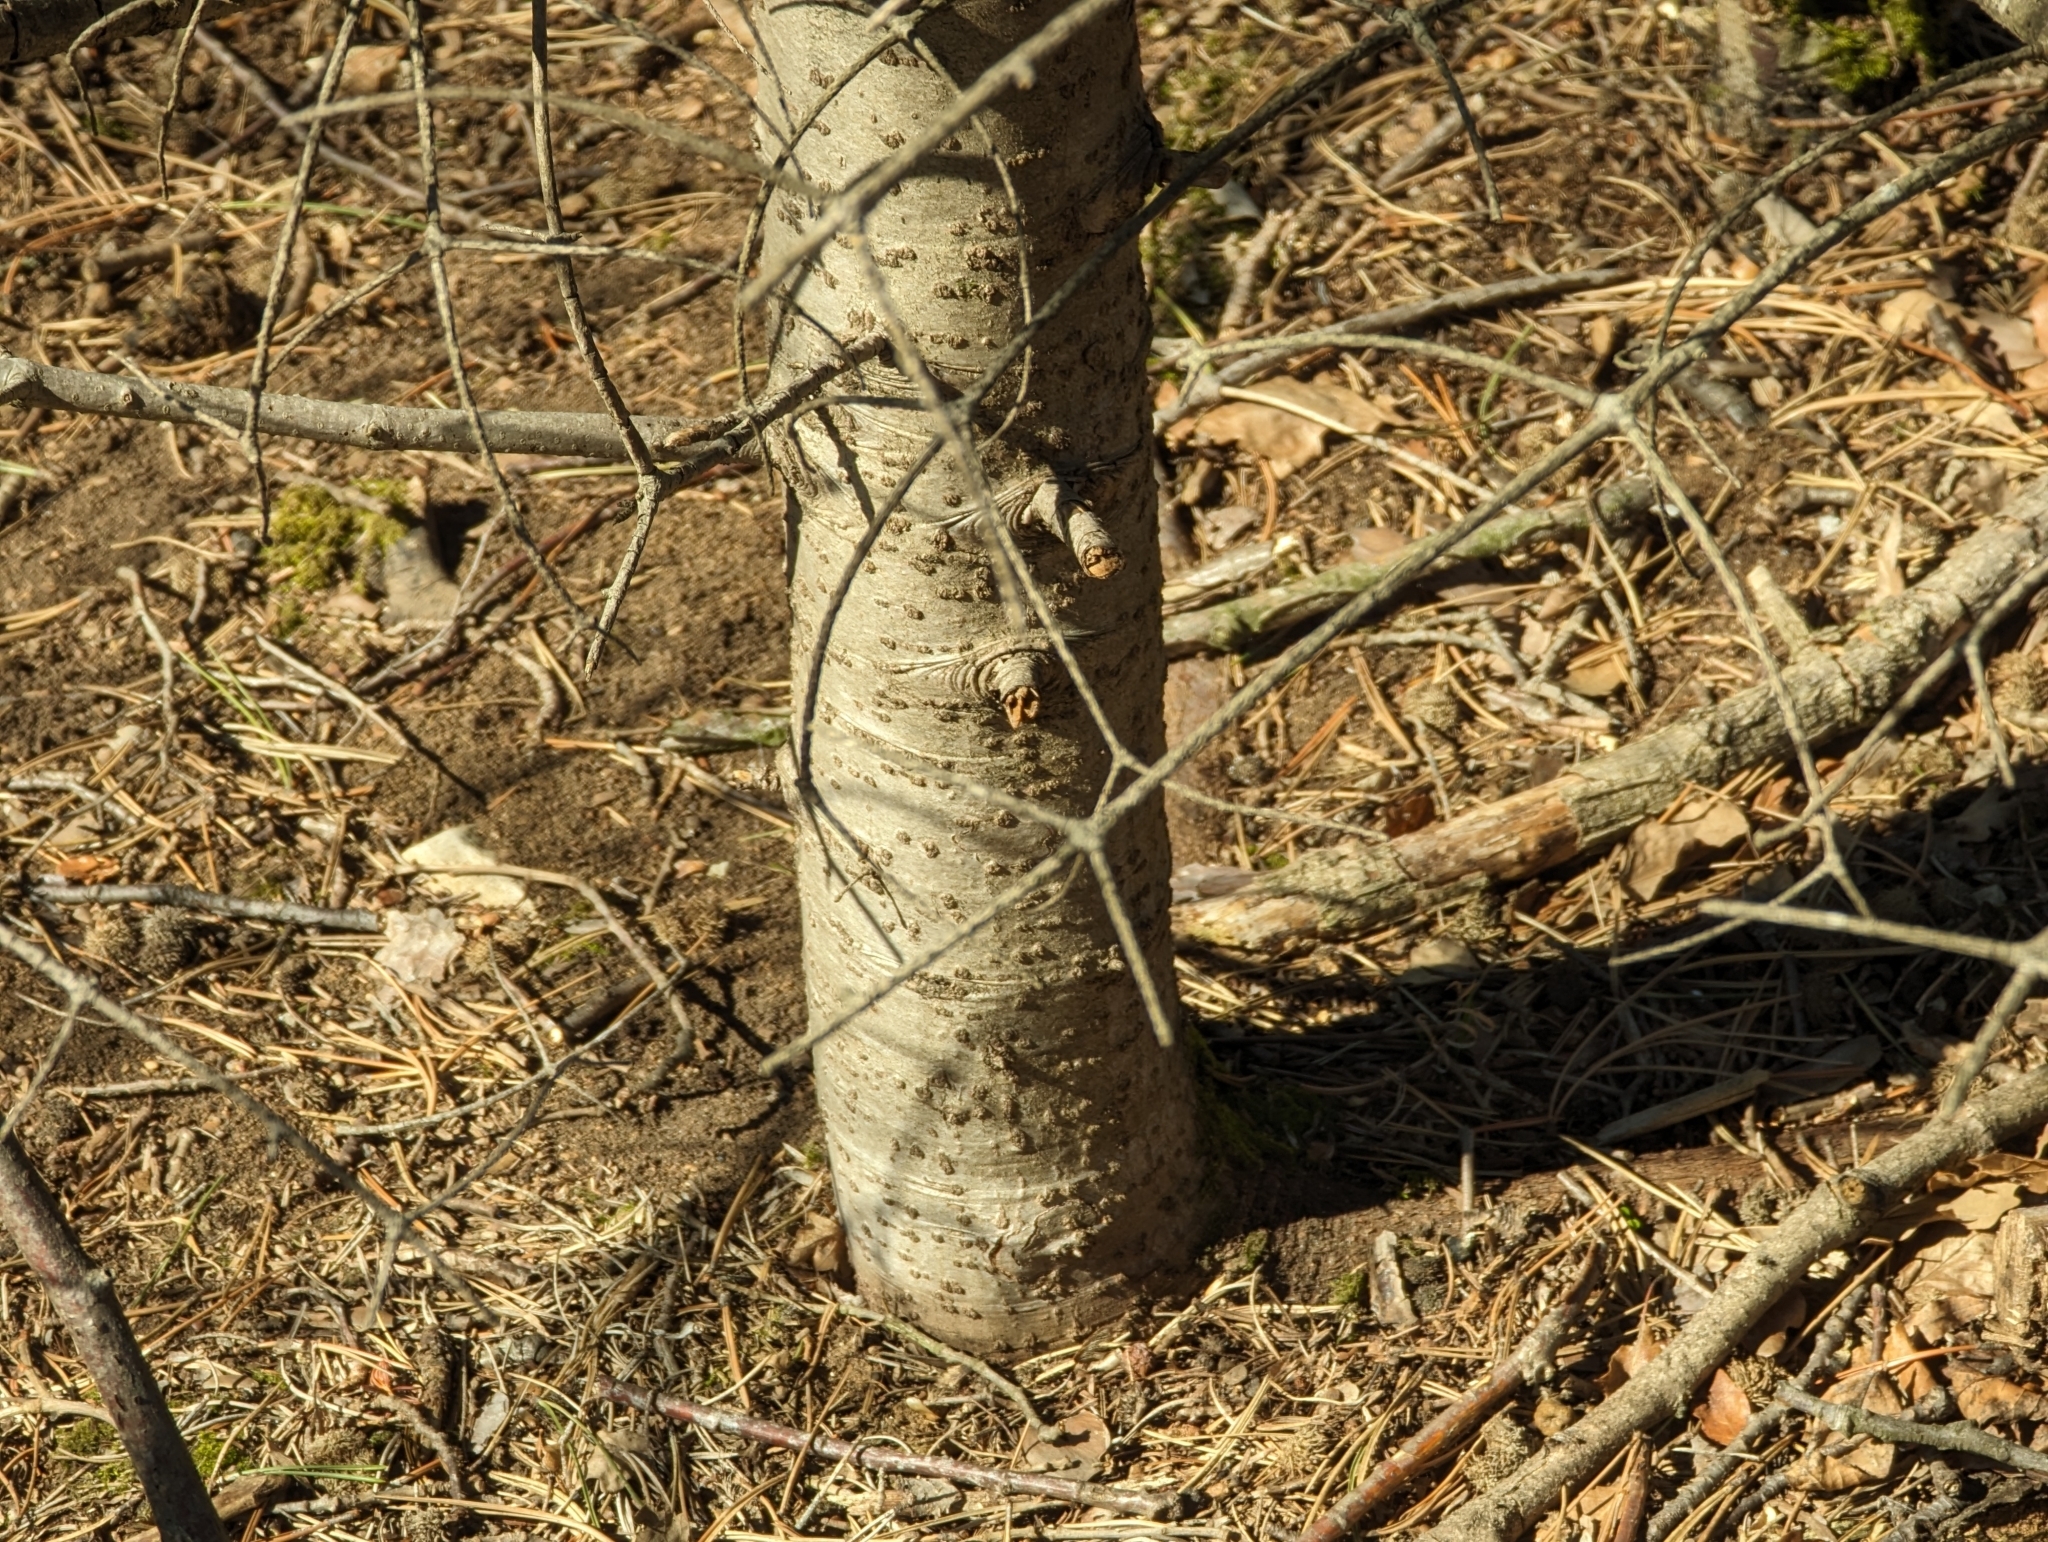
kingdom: Plantae
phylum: Tracheophyta
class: Pinopsida
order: Pinales
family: Pinaceae
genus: Abies
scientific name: Abies alba
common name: Silver fir
